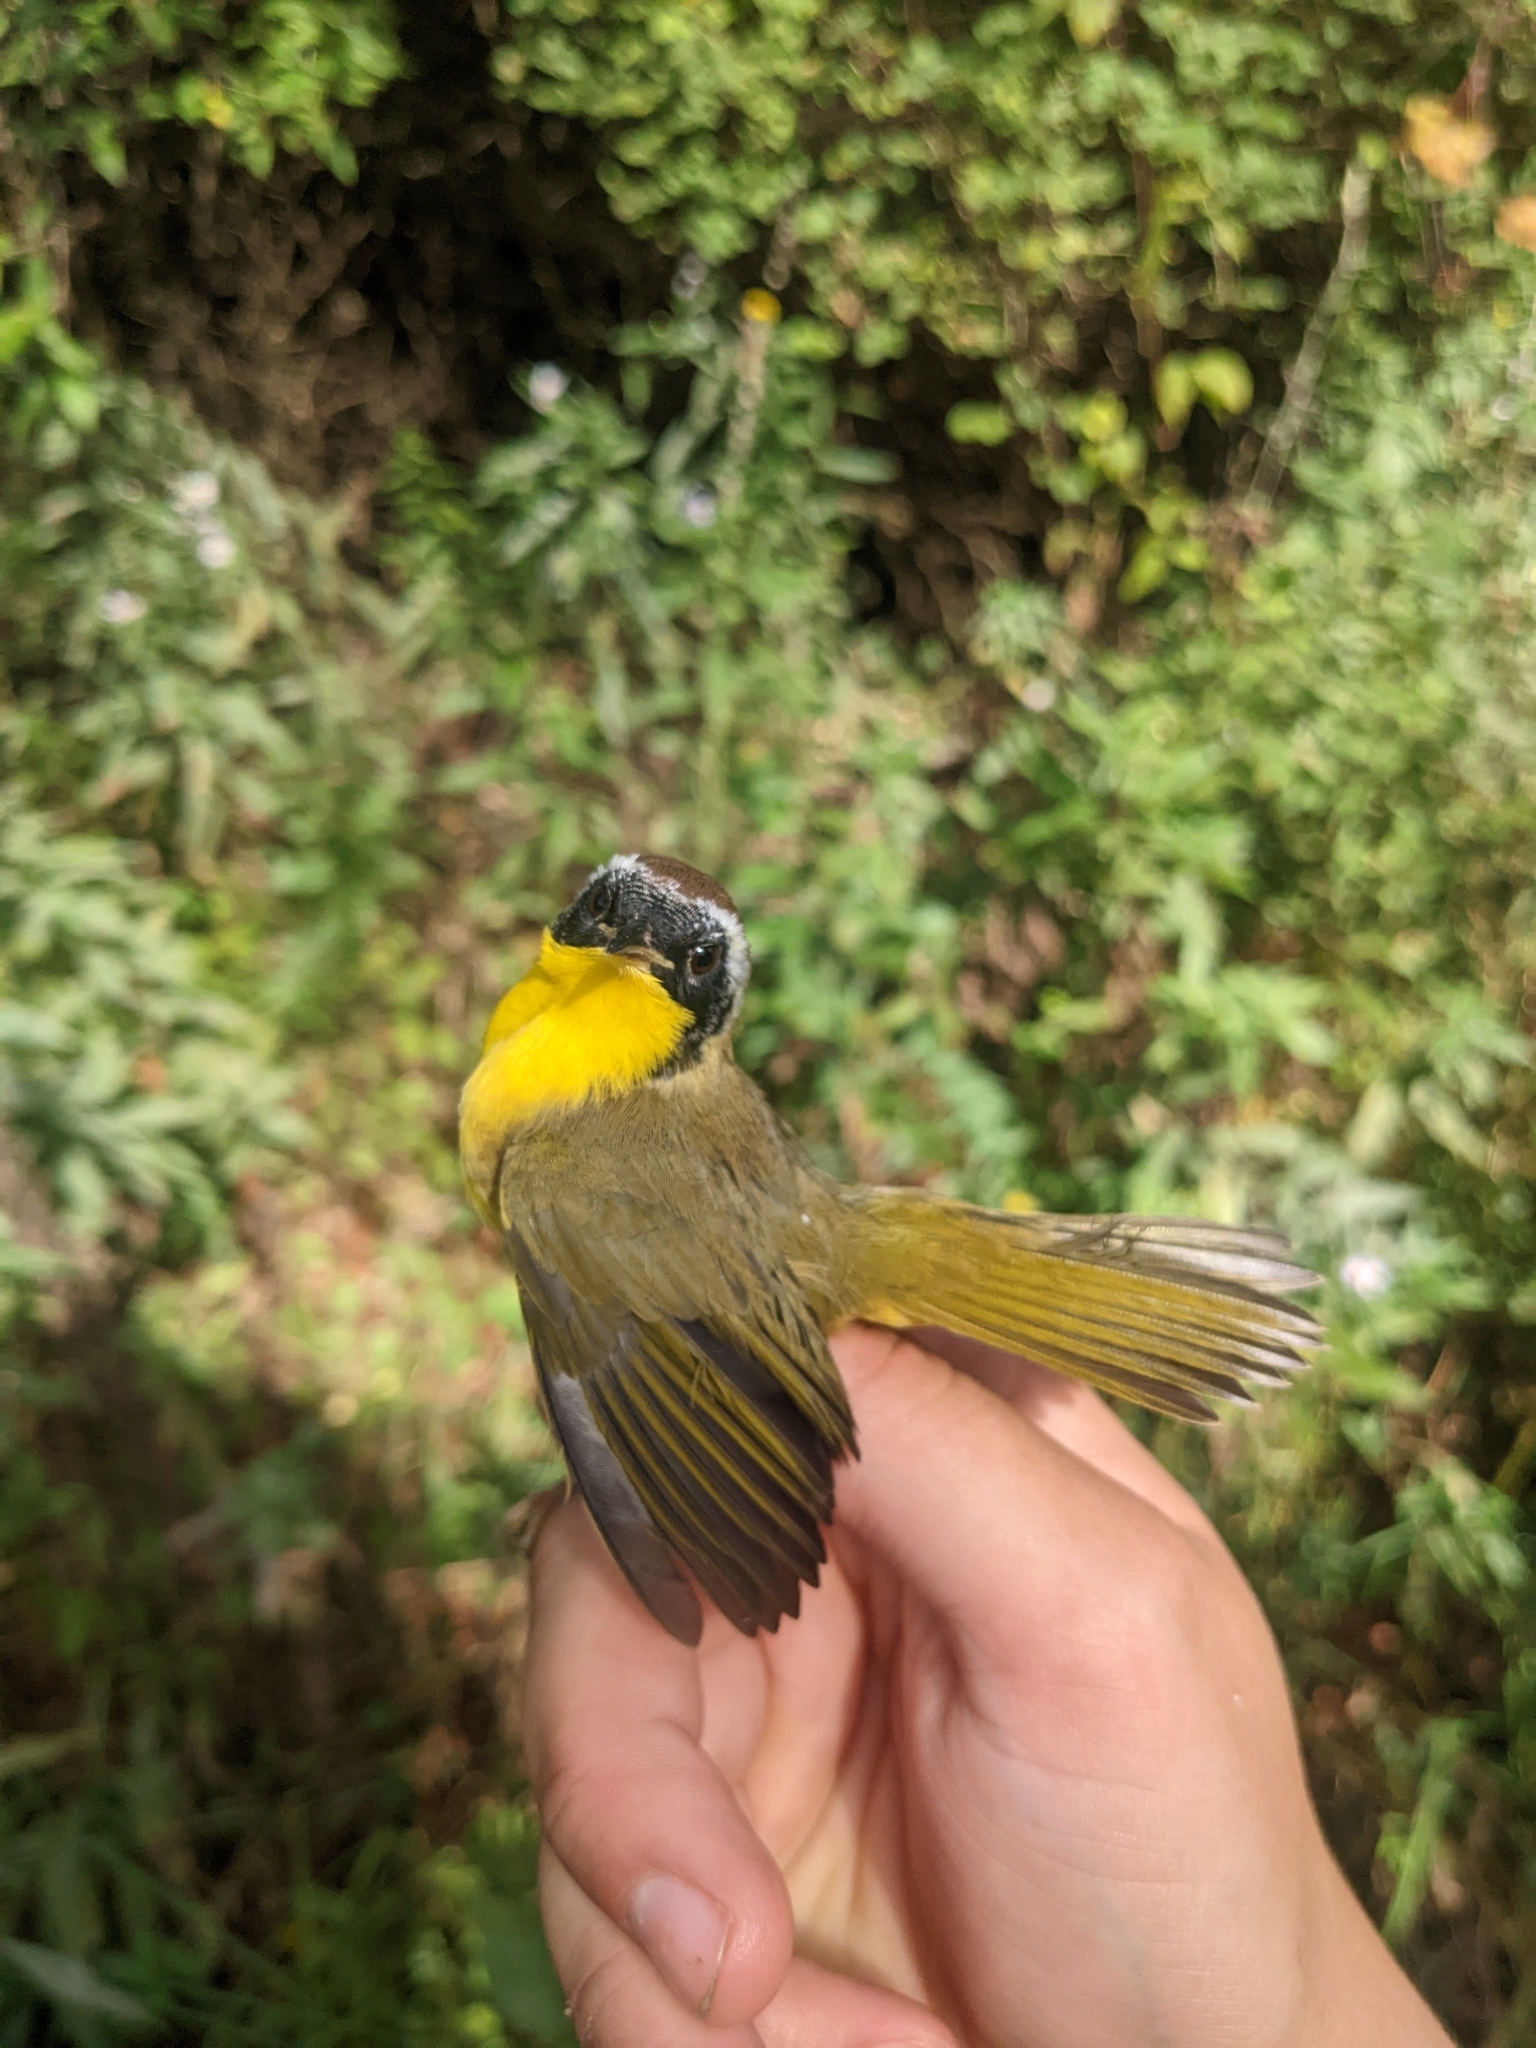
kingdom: Animalia
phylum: Chordata
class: Aves
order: Passeriformes
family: Parulidae
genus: Geothlypis
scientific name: Geothlypis trichas
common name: Common yellowthroat
